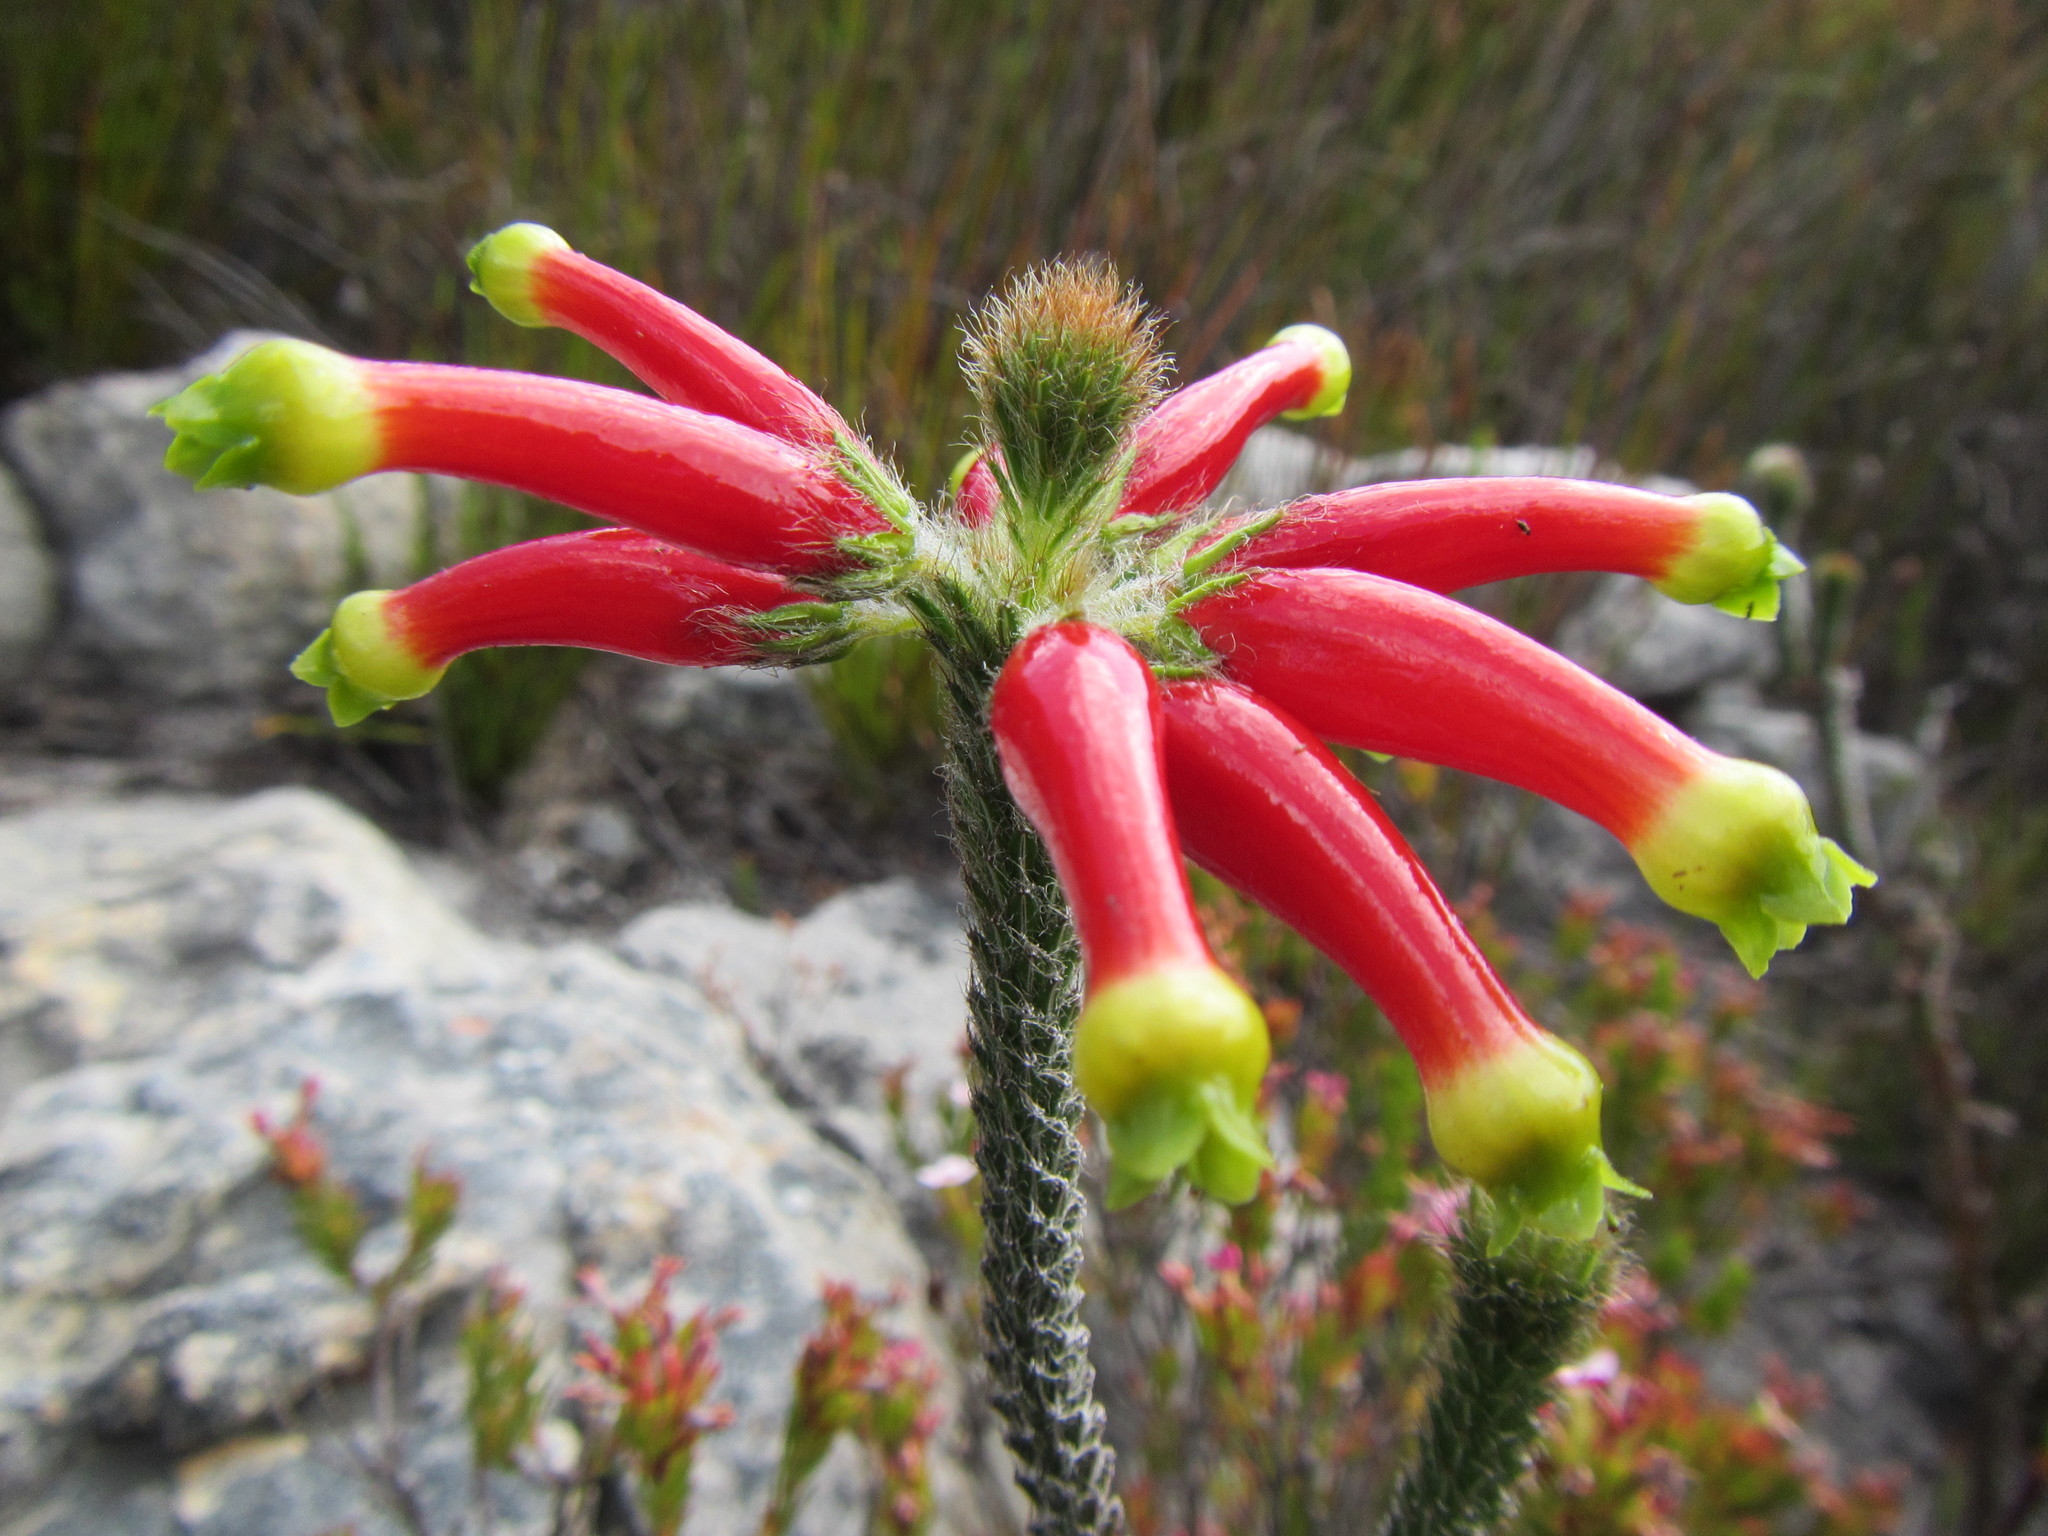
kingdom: Plantae
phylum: Tracheophyta
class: Magnoliopsida
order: Ericales
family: Ericaceae
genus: Erica
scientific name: Erica massonii
